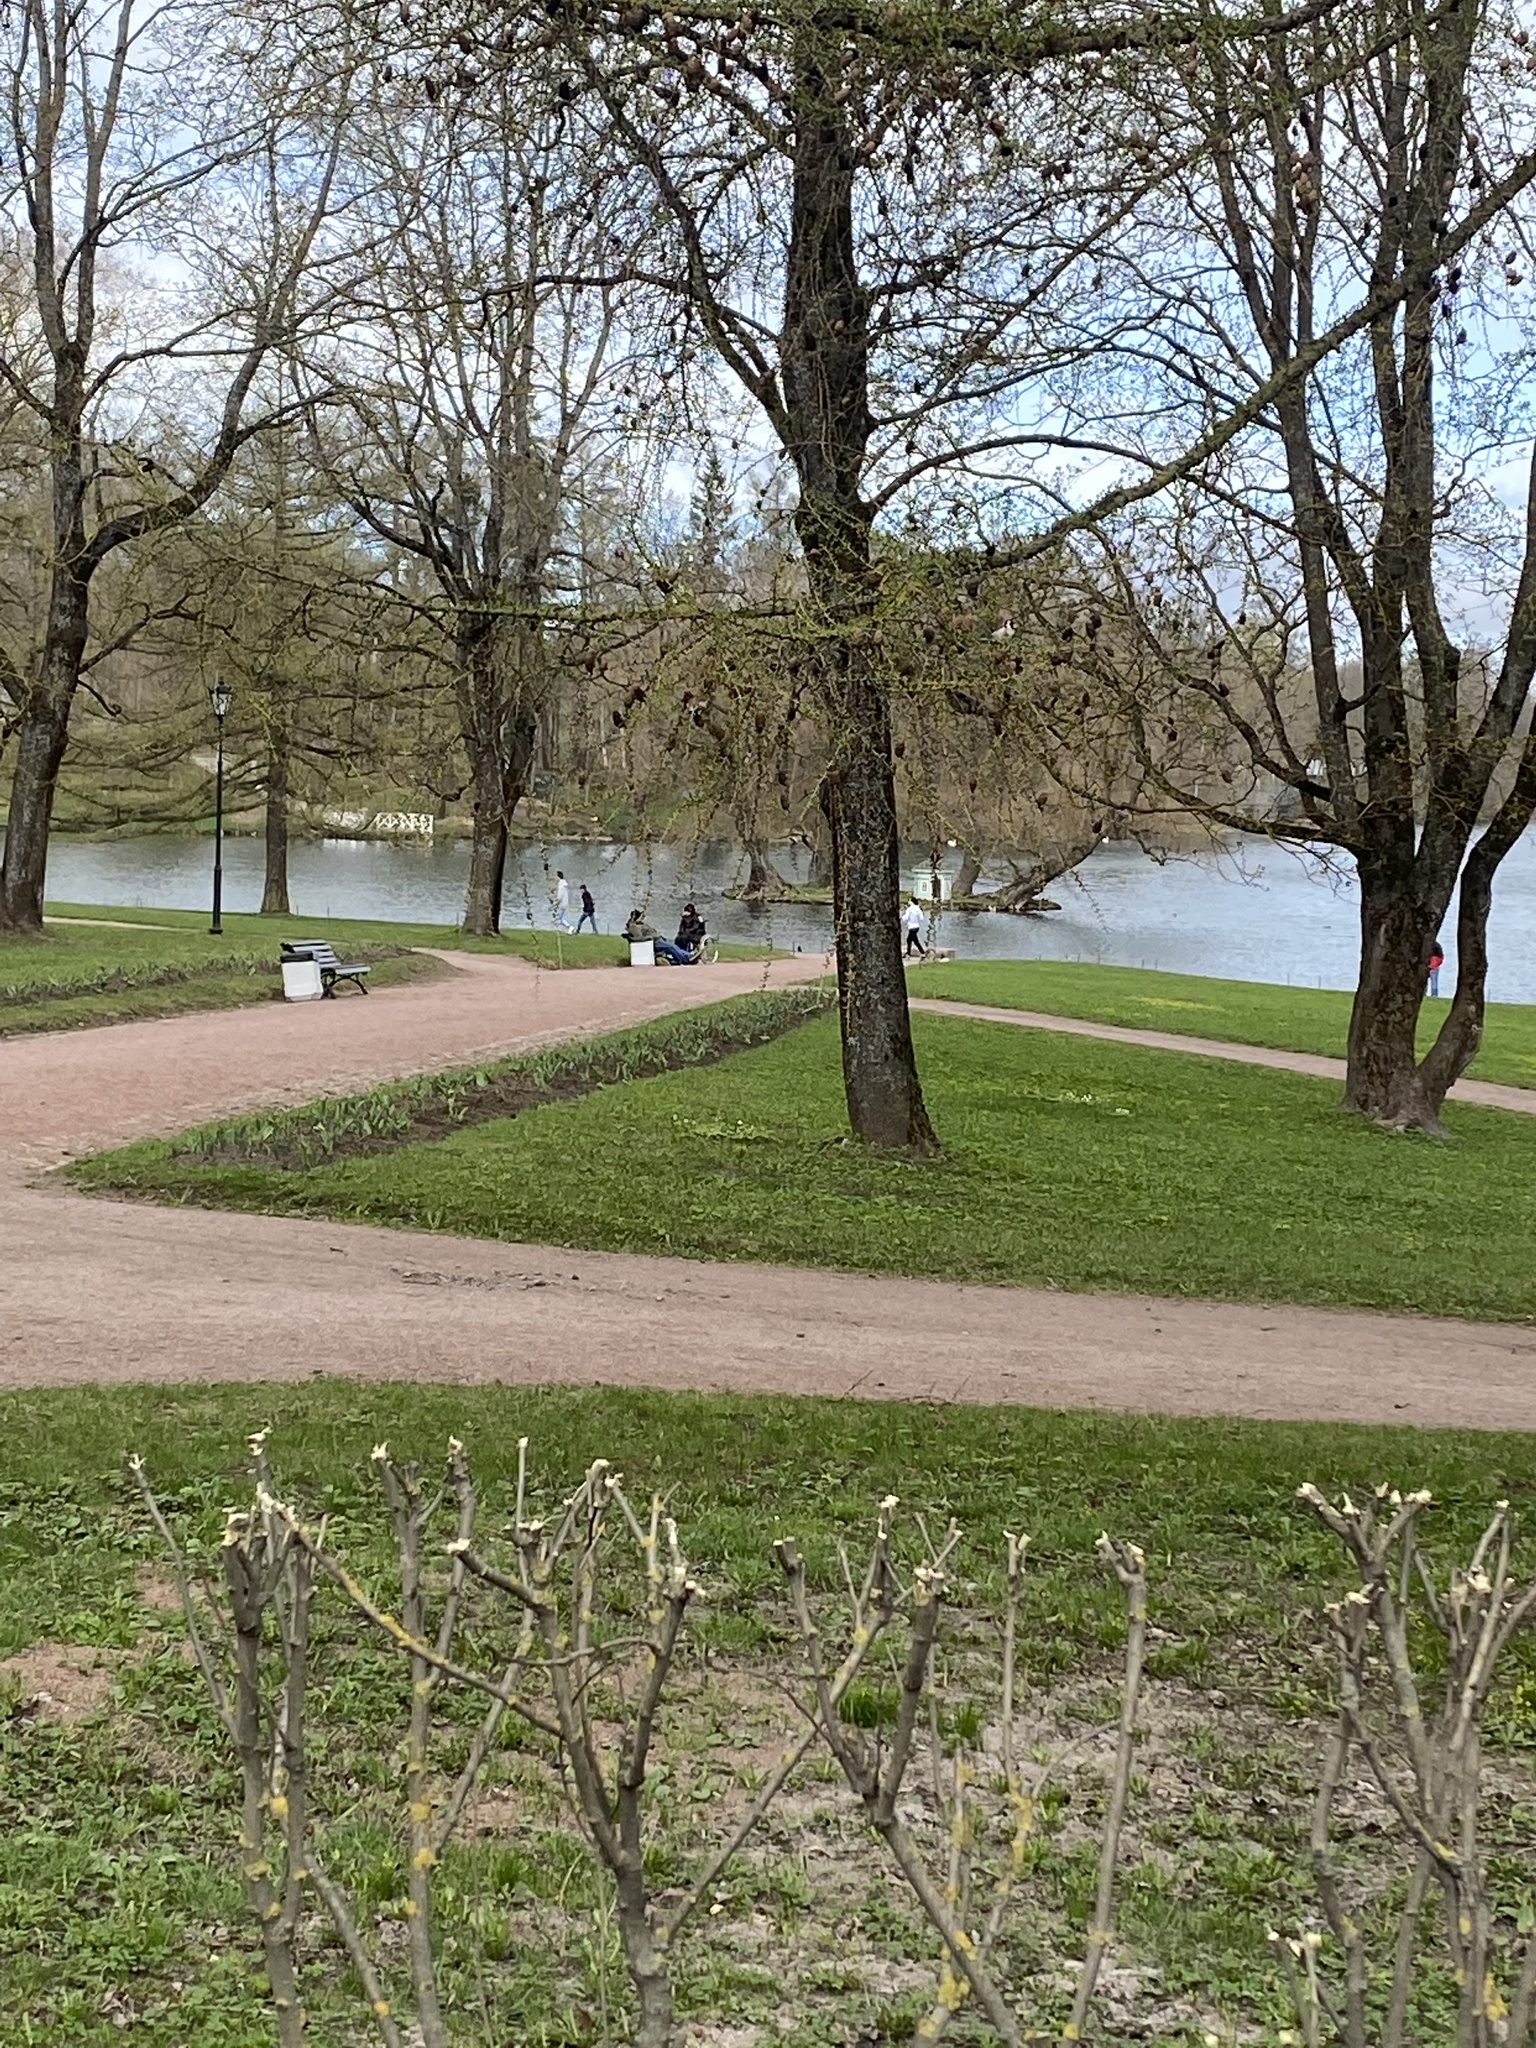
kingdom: Animalia
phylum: Chordata
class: Aves
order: Passeriformes
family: Fringillidae
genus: Carduelis
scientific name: Carduelis carduelis
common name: European goldfinch
